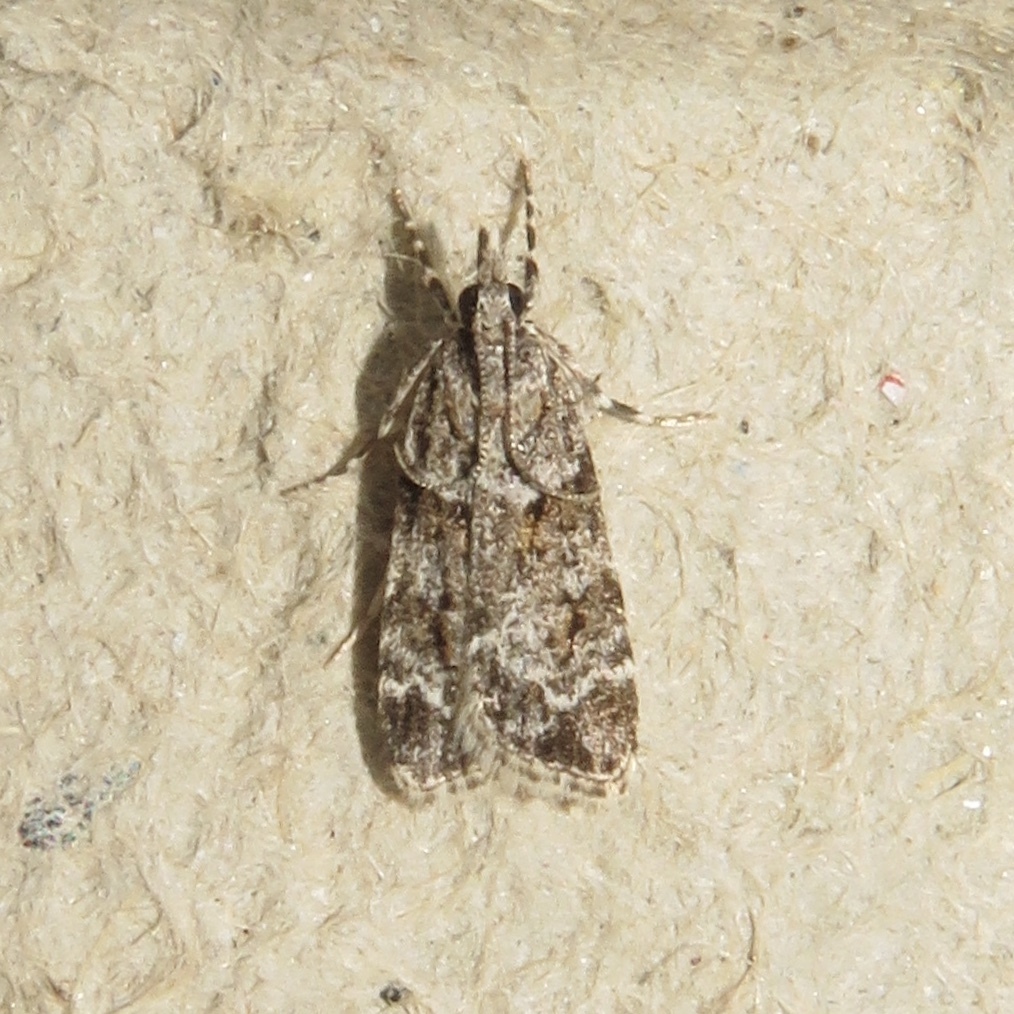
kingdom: Animalia
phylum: Arthropoda
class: Insecta
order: Lepidoptera
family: Crambidae
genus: Scoparia
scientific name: Scoparia biplagialis
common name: Double-striped scoparia moth
